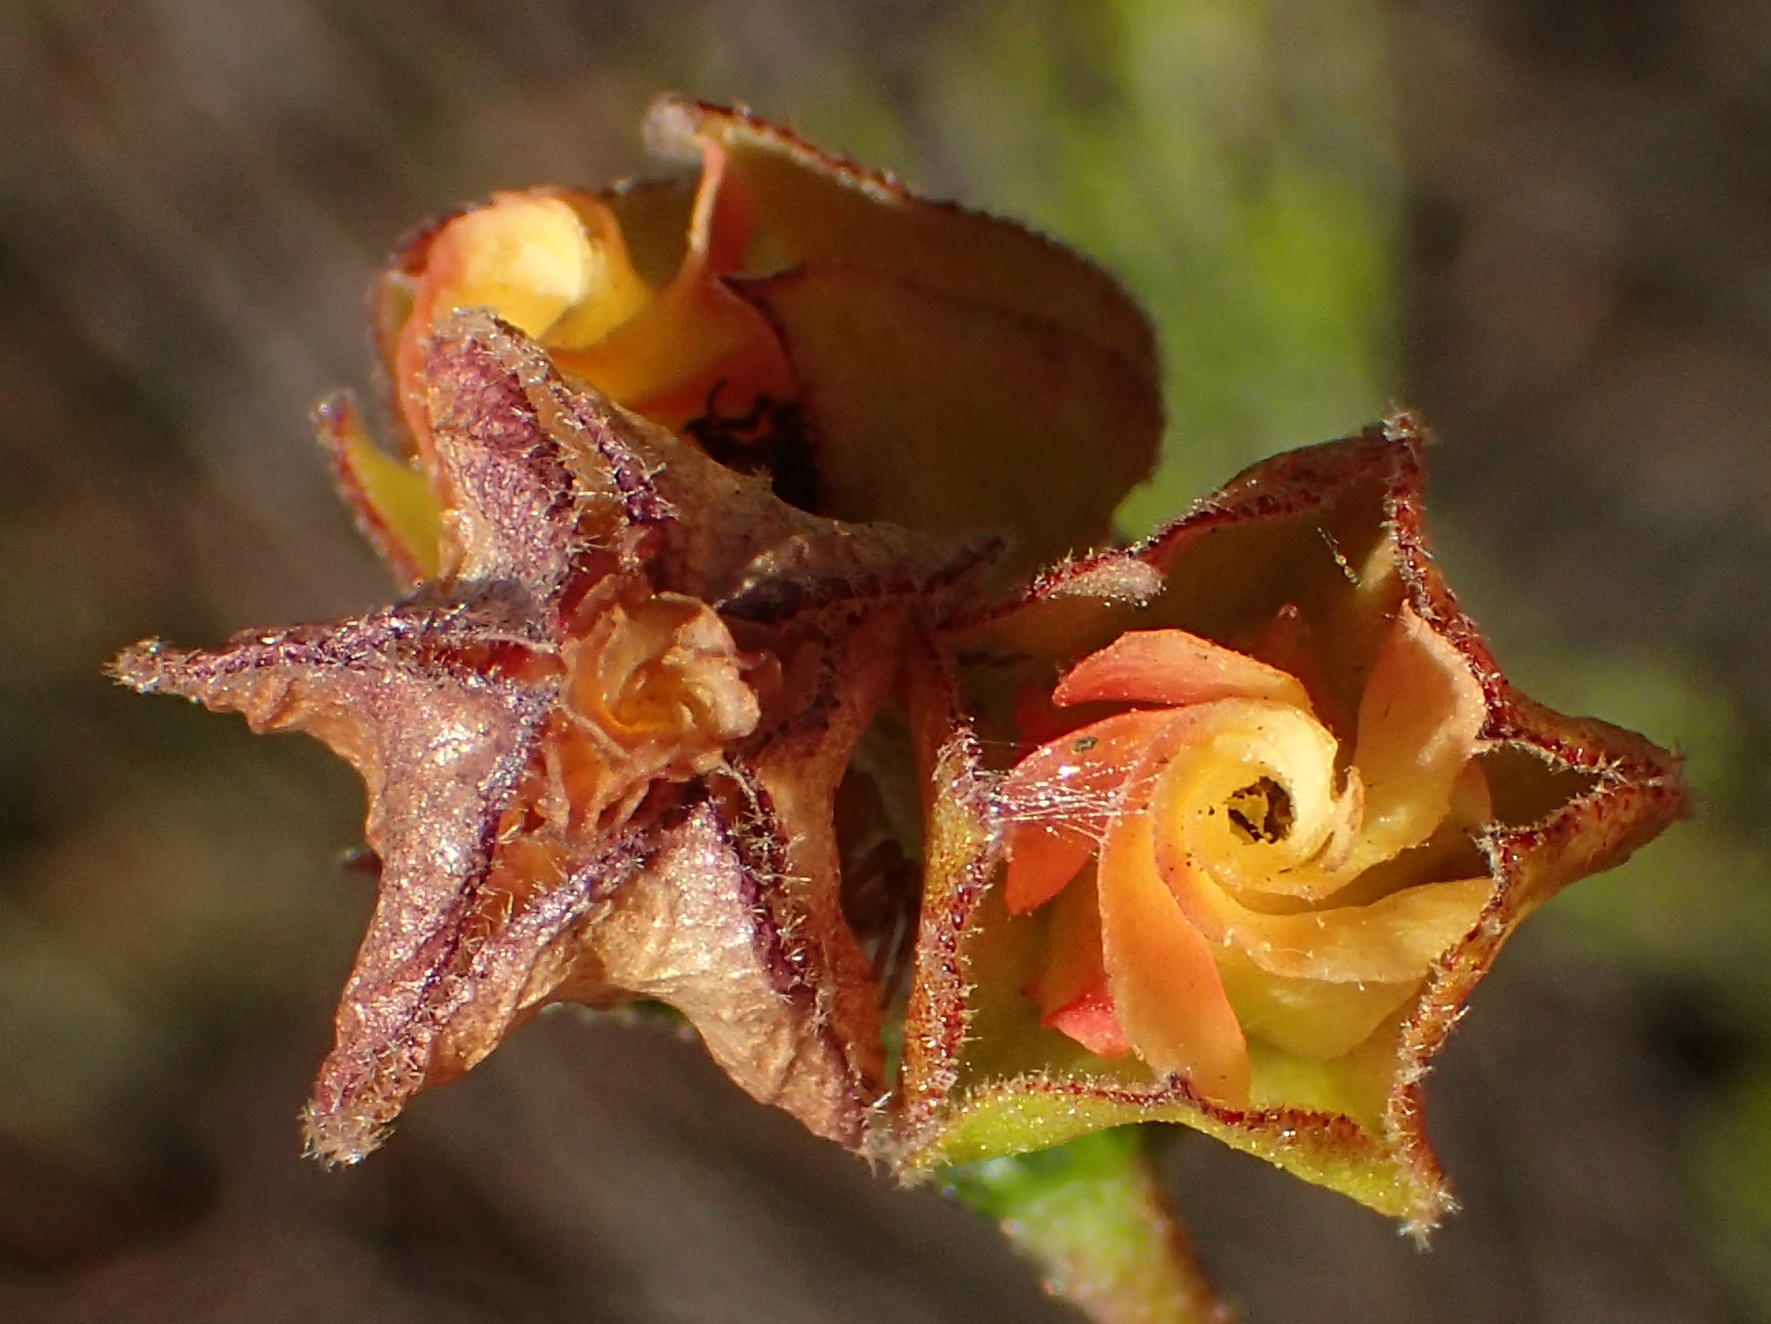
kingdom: Plantae
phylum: Tracheophyta
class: Magnoliopsida
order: Malvales
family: Malvaceae
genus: Hermannia
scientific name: Hermannia angularis
